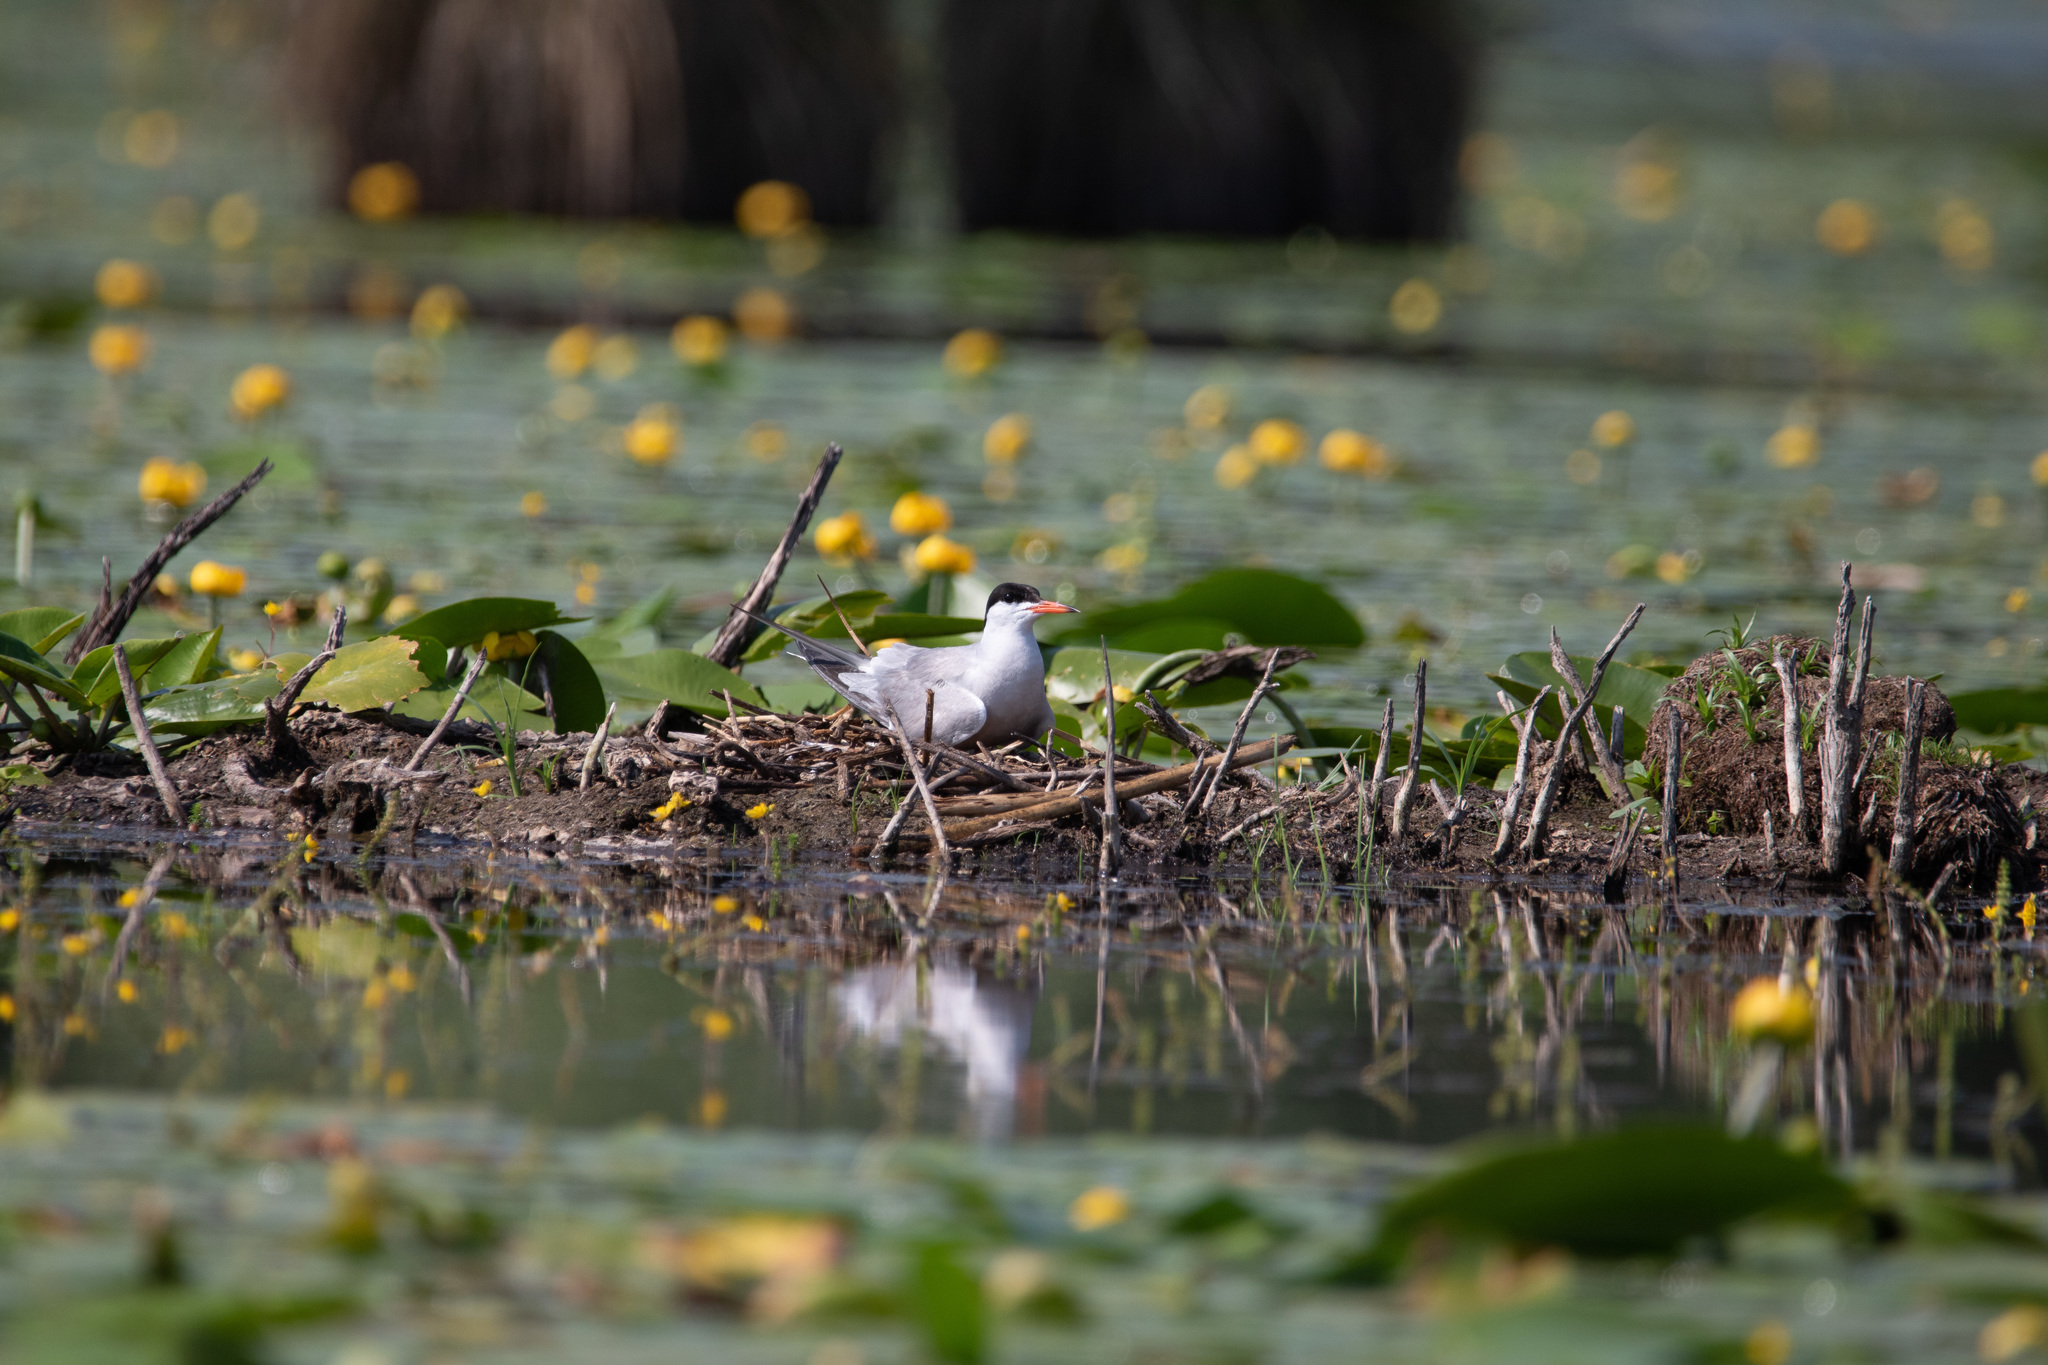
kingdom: Animalia
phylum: Chordata
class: Aves
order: Charadriiformes
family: Laridae
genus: Sterna
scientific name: Sterna hirundo
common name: Common tern
